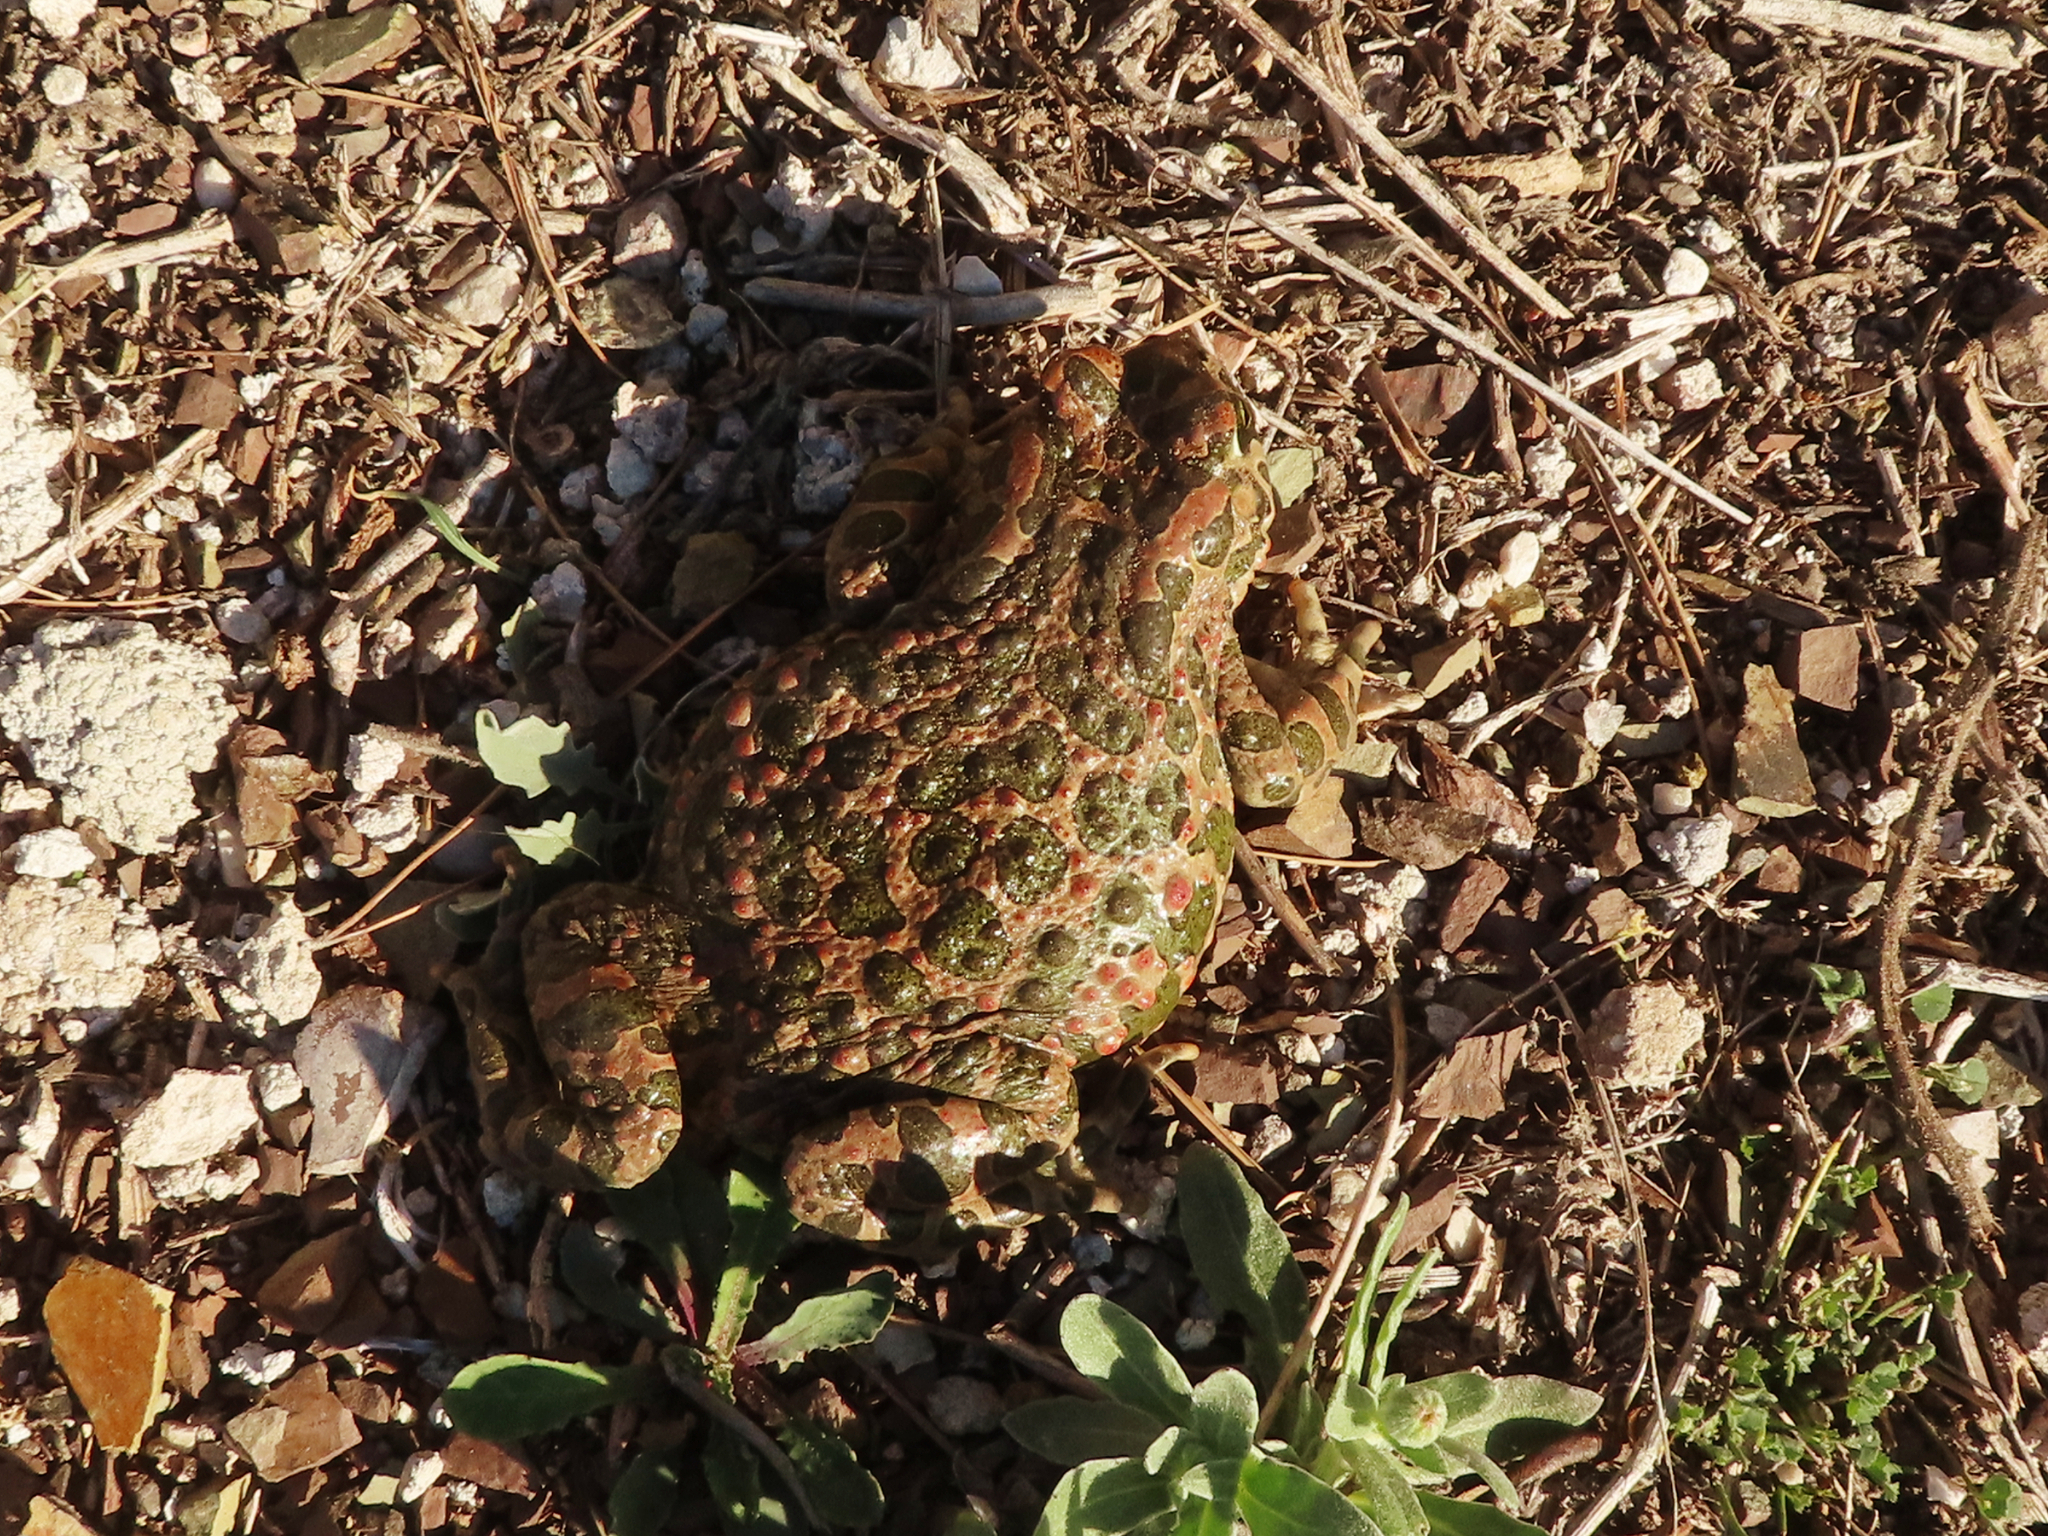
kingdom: Animalia
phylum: Chordata
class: Amphibia
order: Anura
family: Bufonidae
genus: Bufotes
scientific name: Bufotes viridis
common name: European green toad
